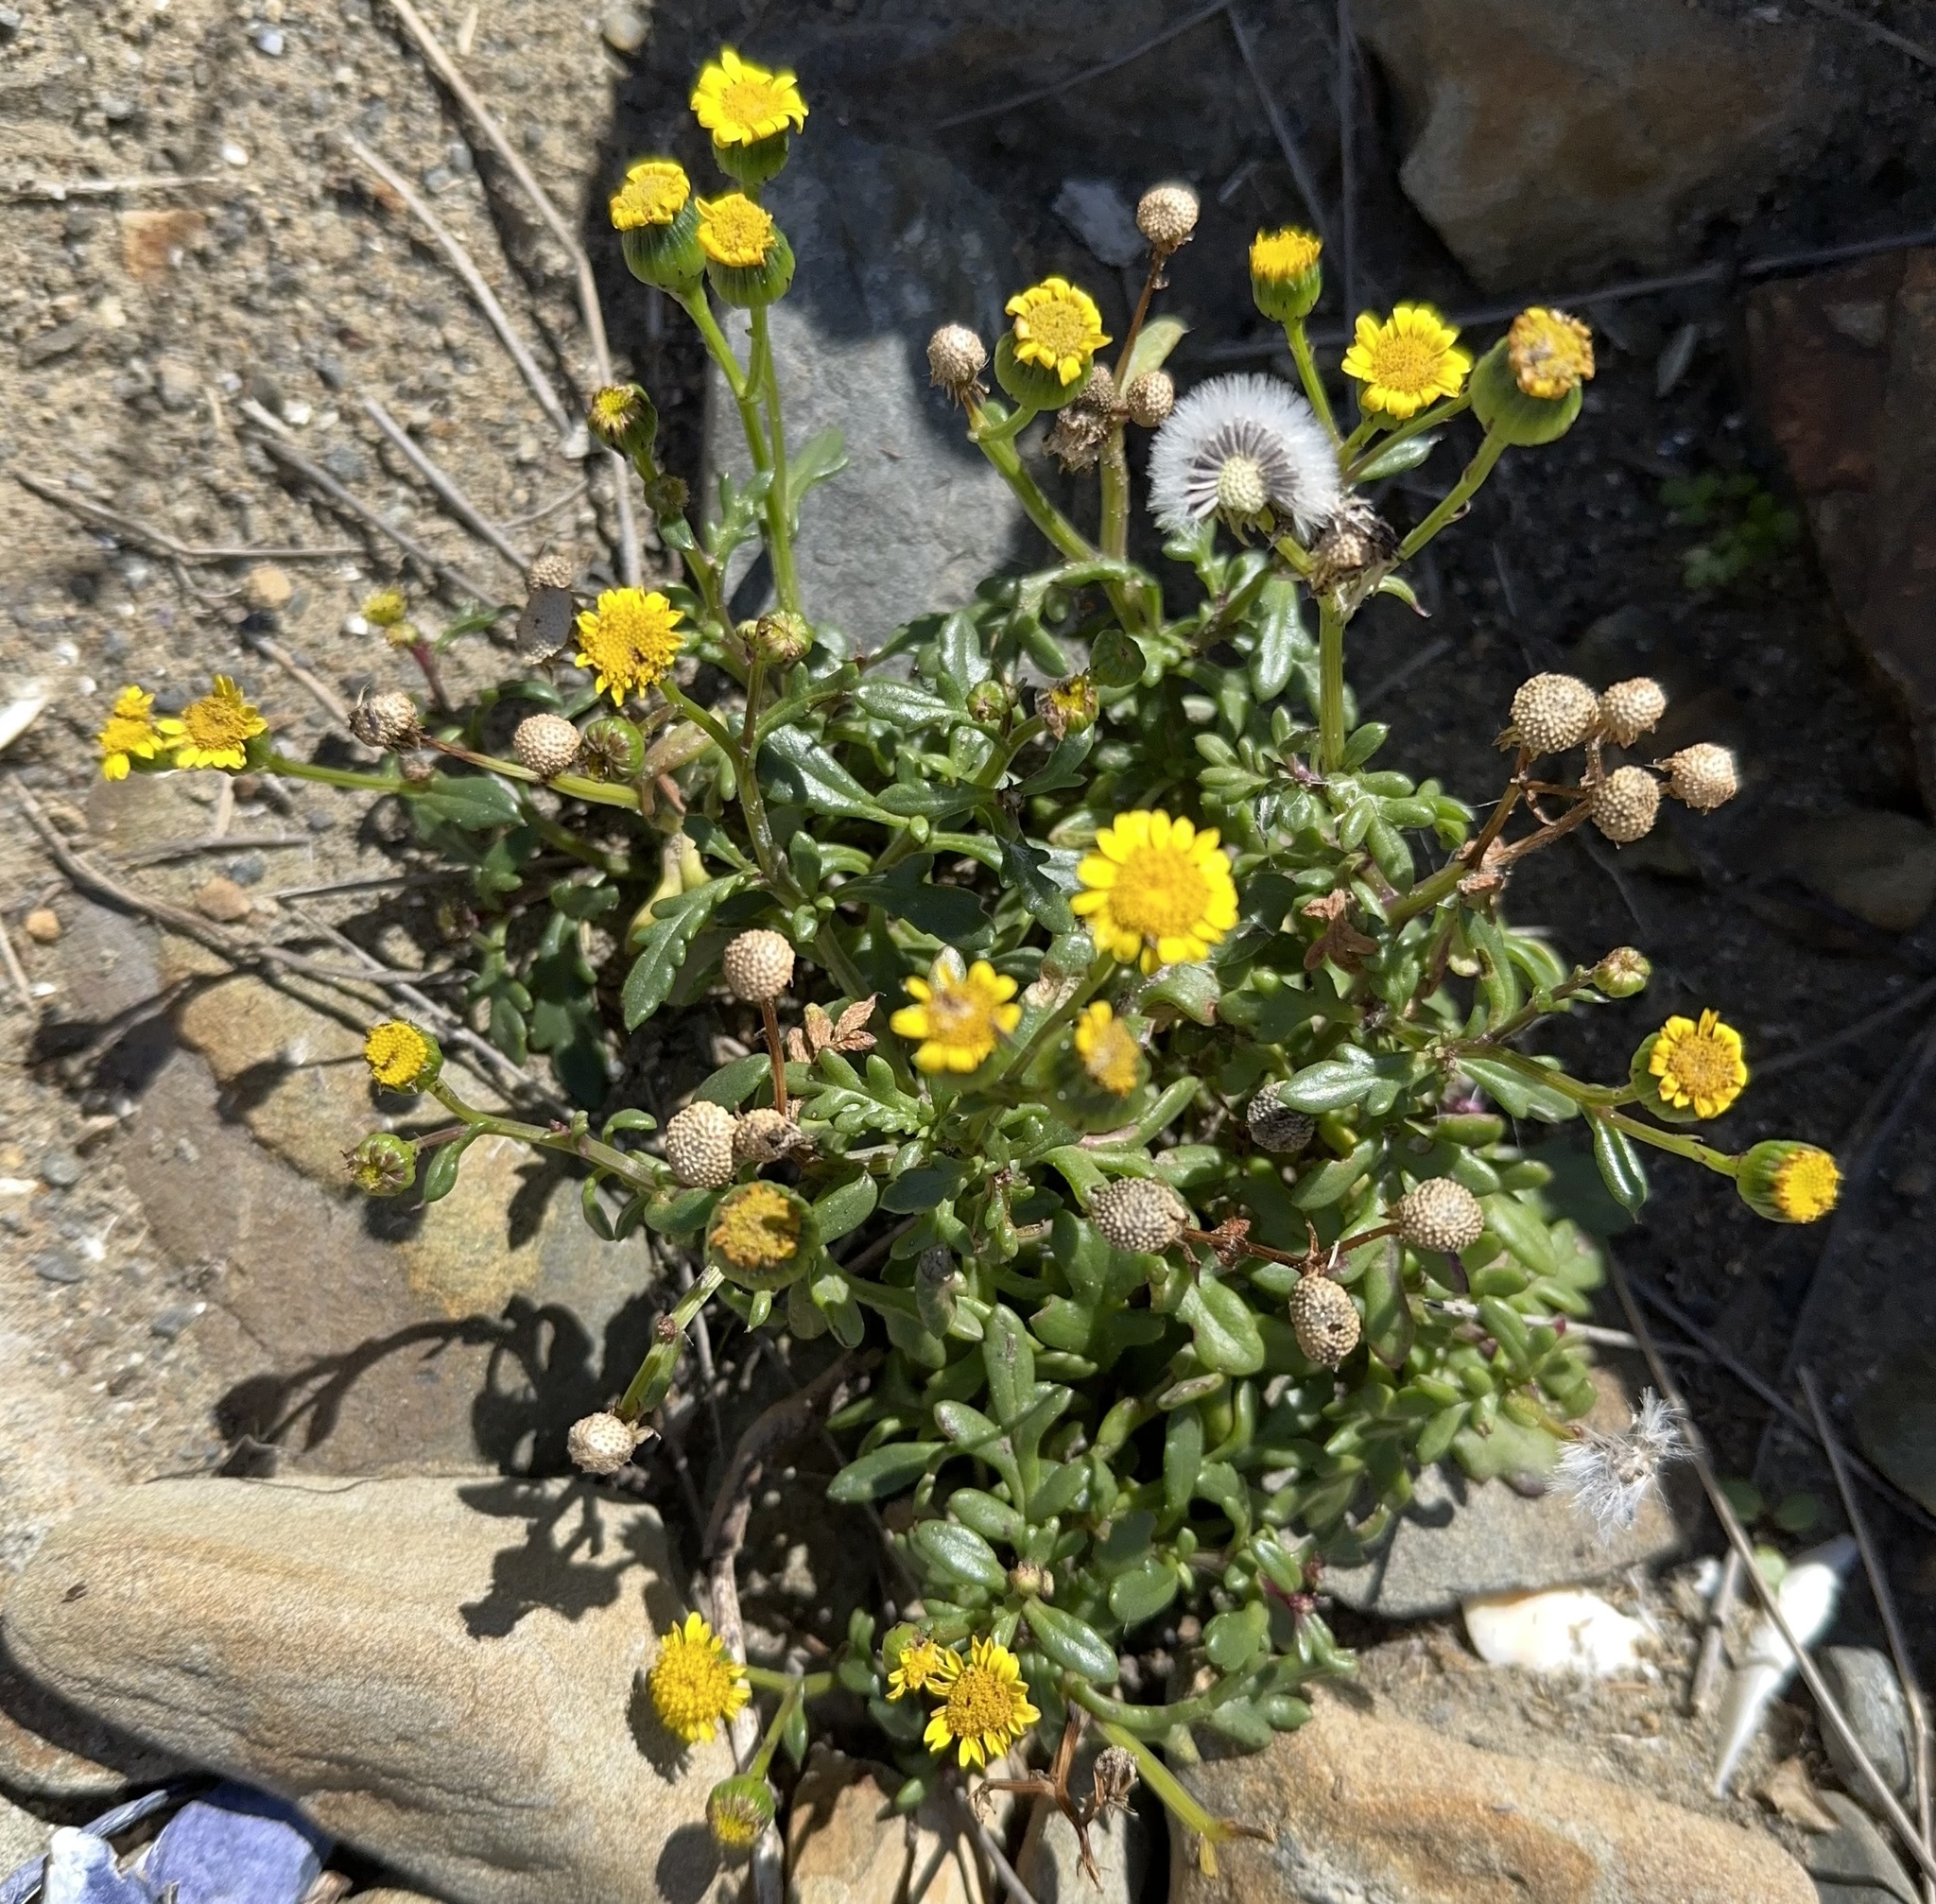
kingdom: Plantae
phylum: Tracheophyta
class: Magnoliopsida
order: Asterales
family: Asteraceae
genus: Senecio
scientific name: Senecio lautus
